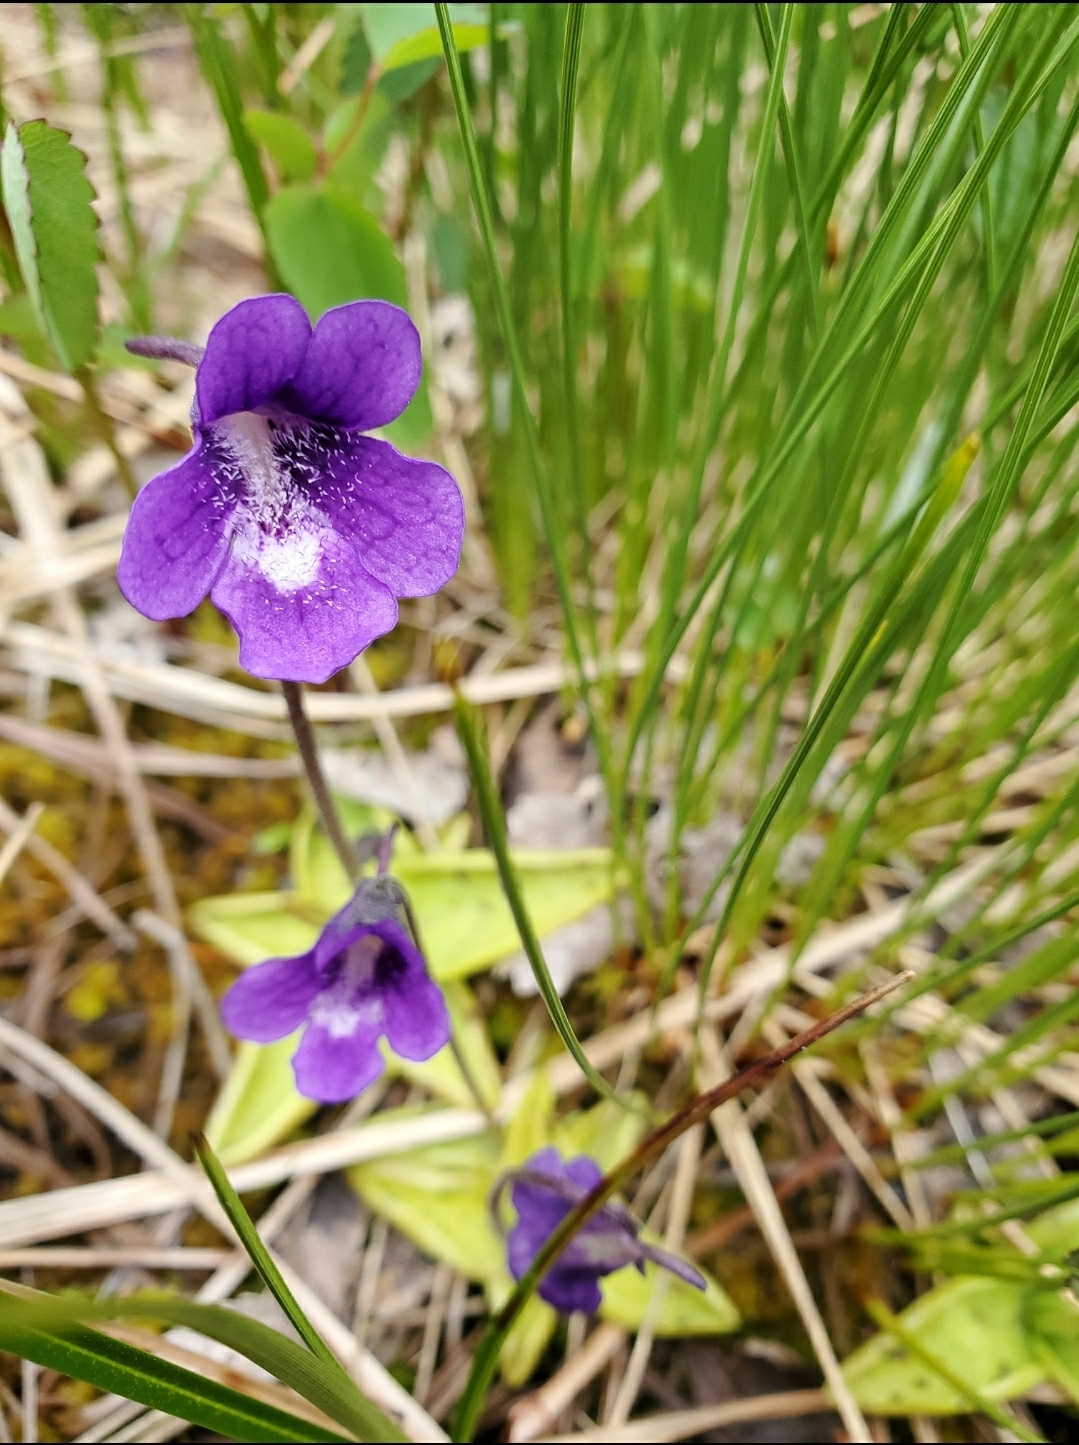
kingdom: Plantae
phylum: Tracheophyta
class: Magnoliopsida
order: Lamiales
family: Lentibulariaceae
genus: Pinguicula
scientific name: Pinguicula vulgaris
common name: Common butterwort
